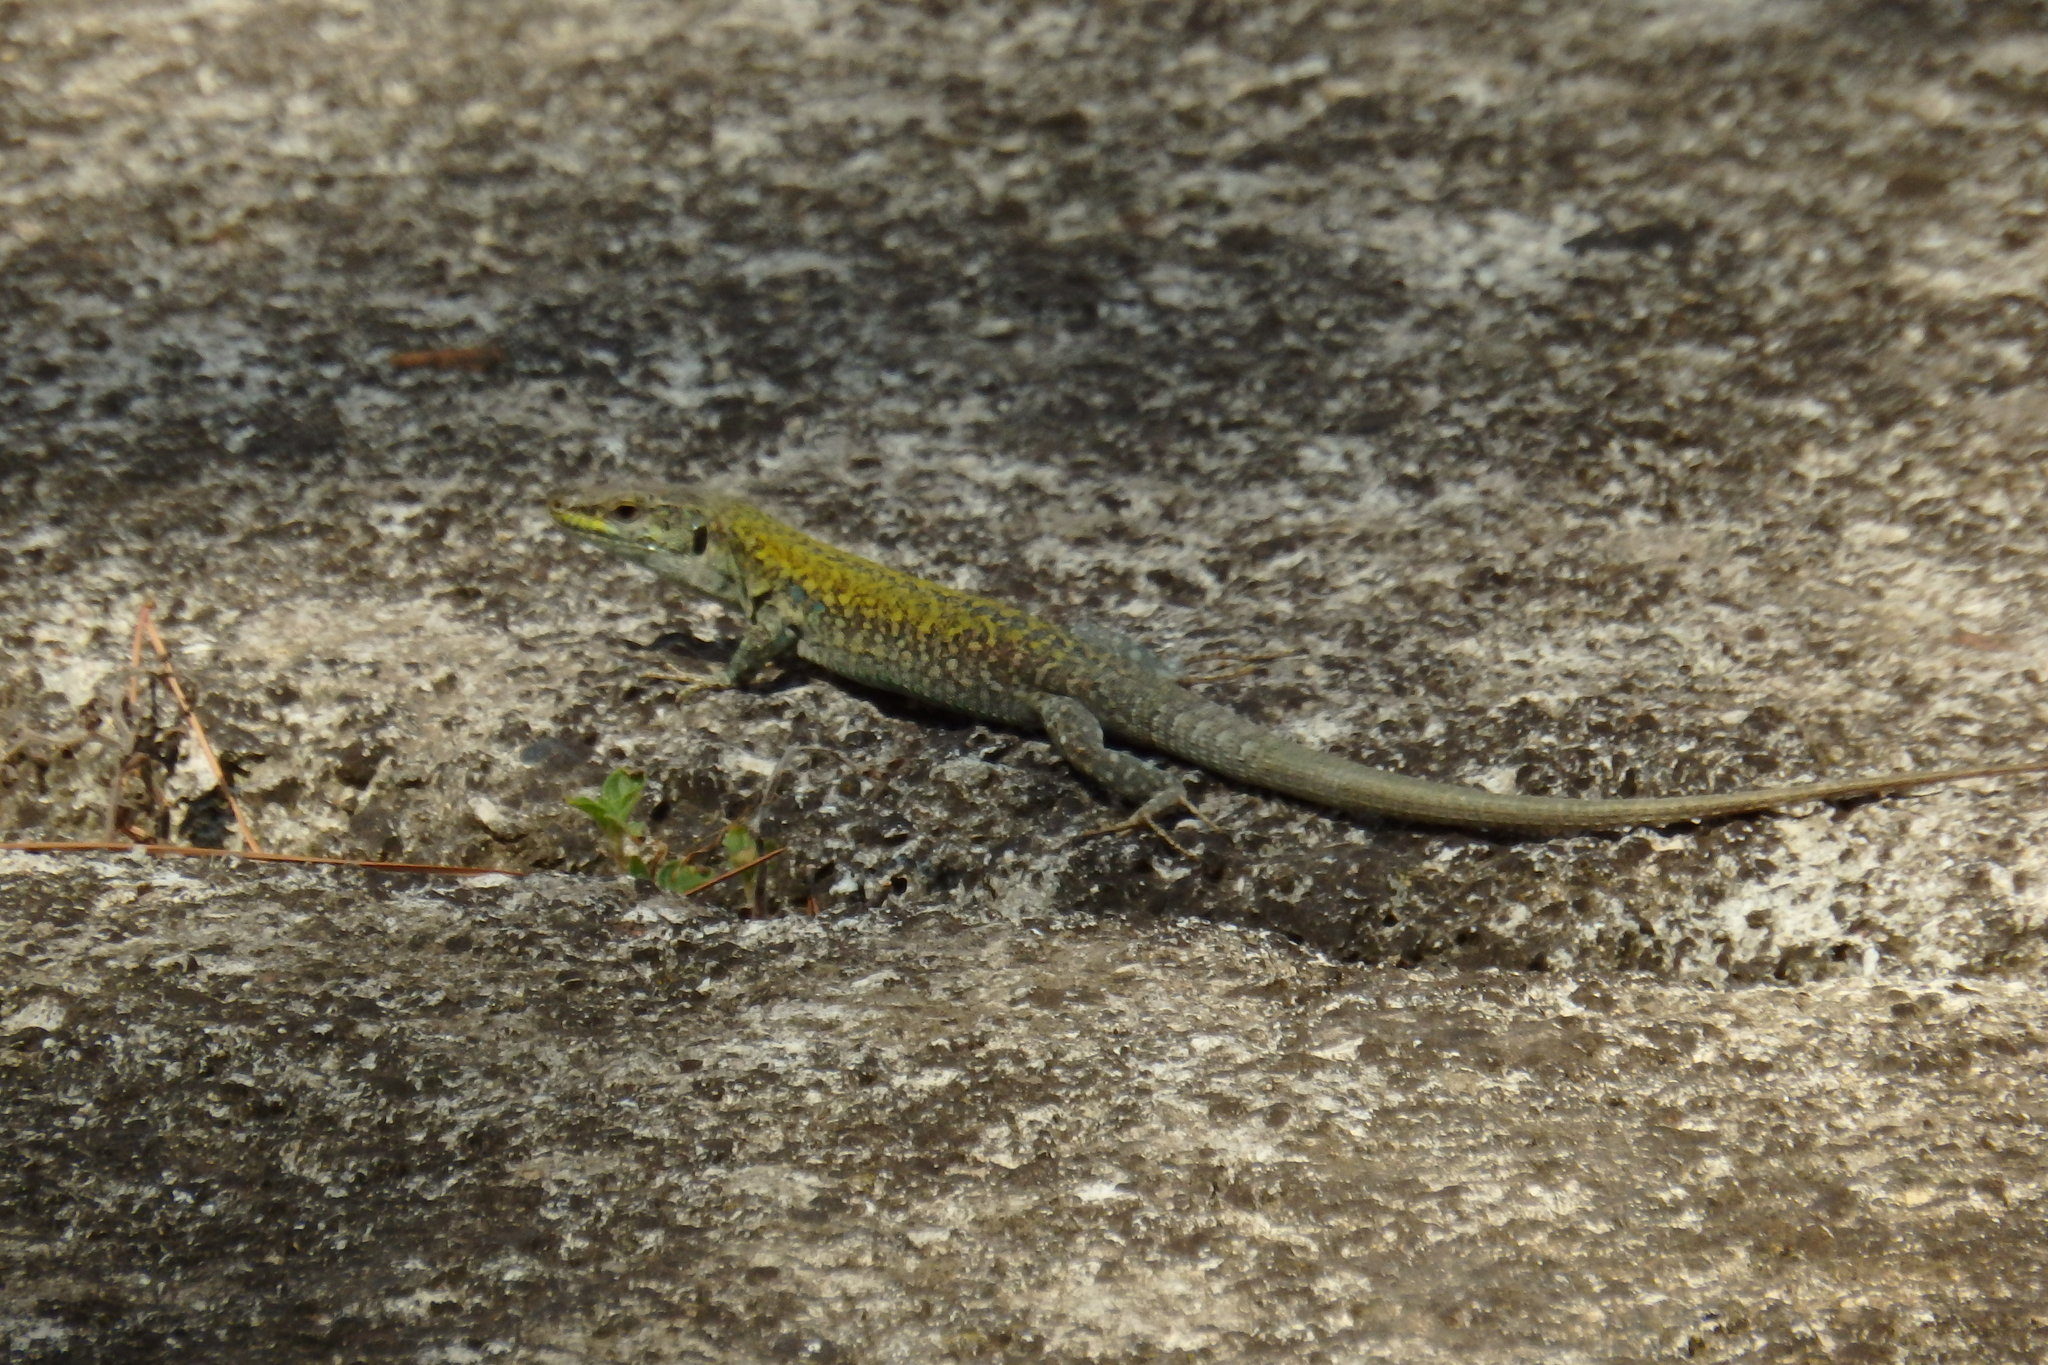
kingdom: Animalia
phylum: Chordata
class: Squamata
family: Lacertidae
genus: Podarcis
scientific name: Podarcis siculus
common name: Italian wall lizard
